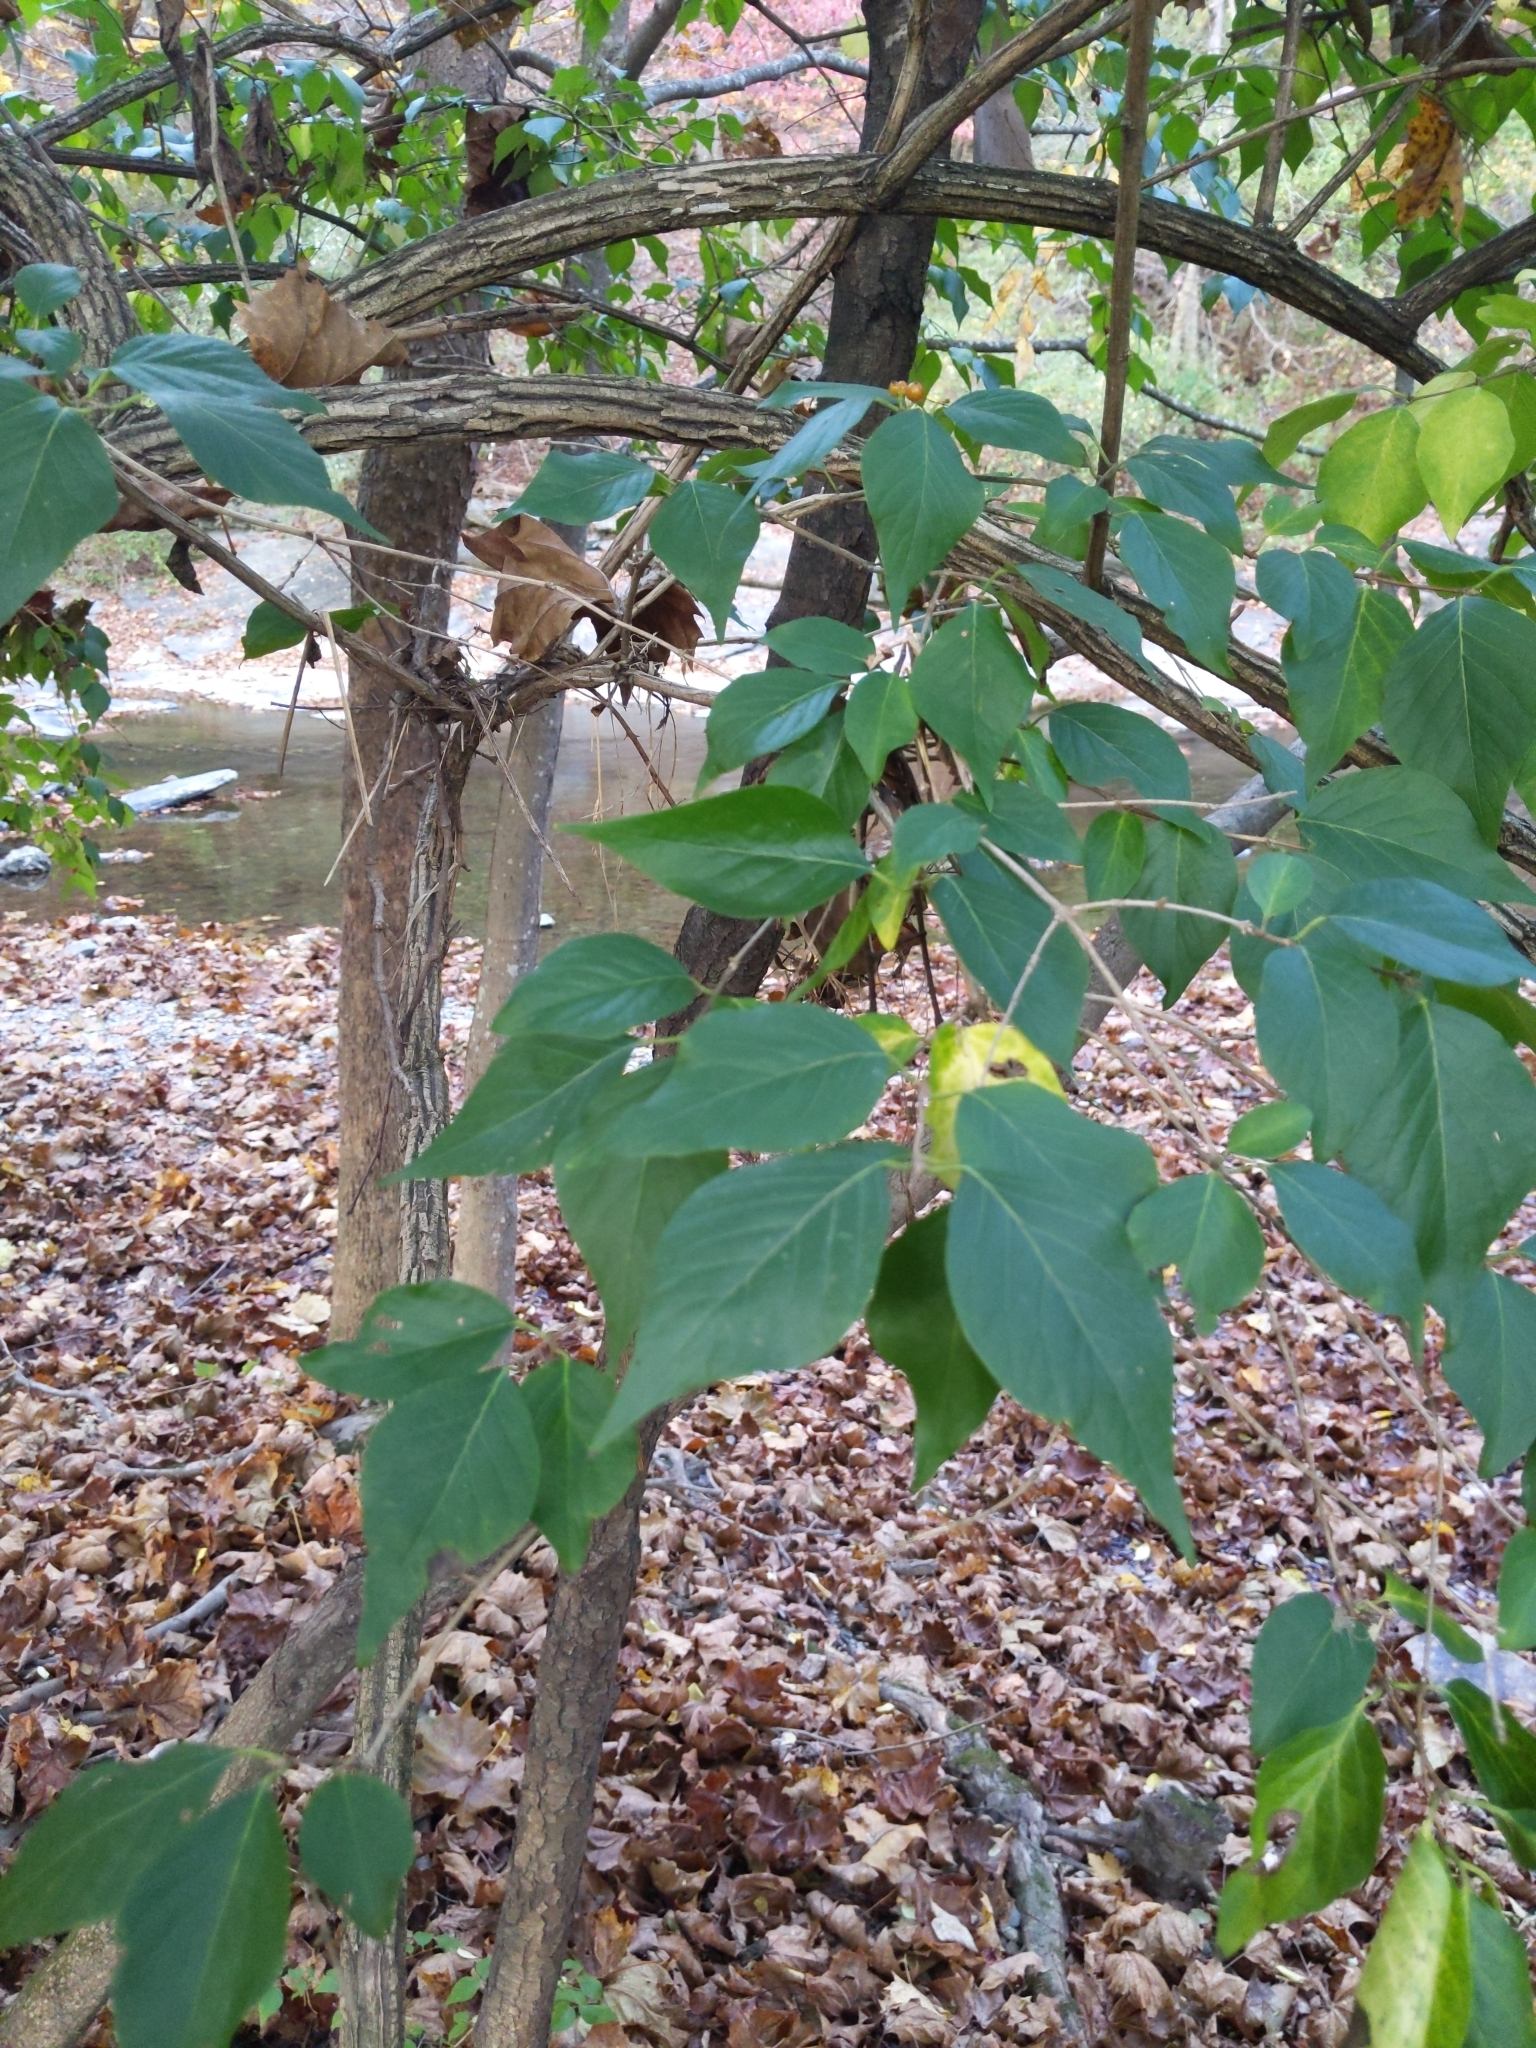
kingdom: Plantae
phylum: Tracheophyta
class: Magnoliopsida
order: Dipsacales
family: Caprifoliaceae
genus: Lonicera
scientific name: Lonicera maackii
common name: Amur honeysuckle
